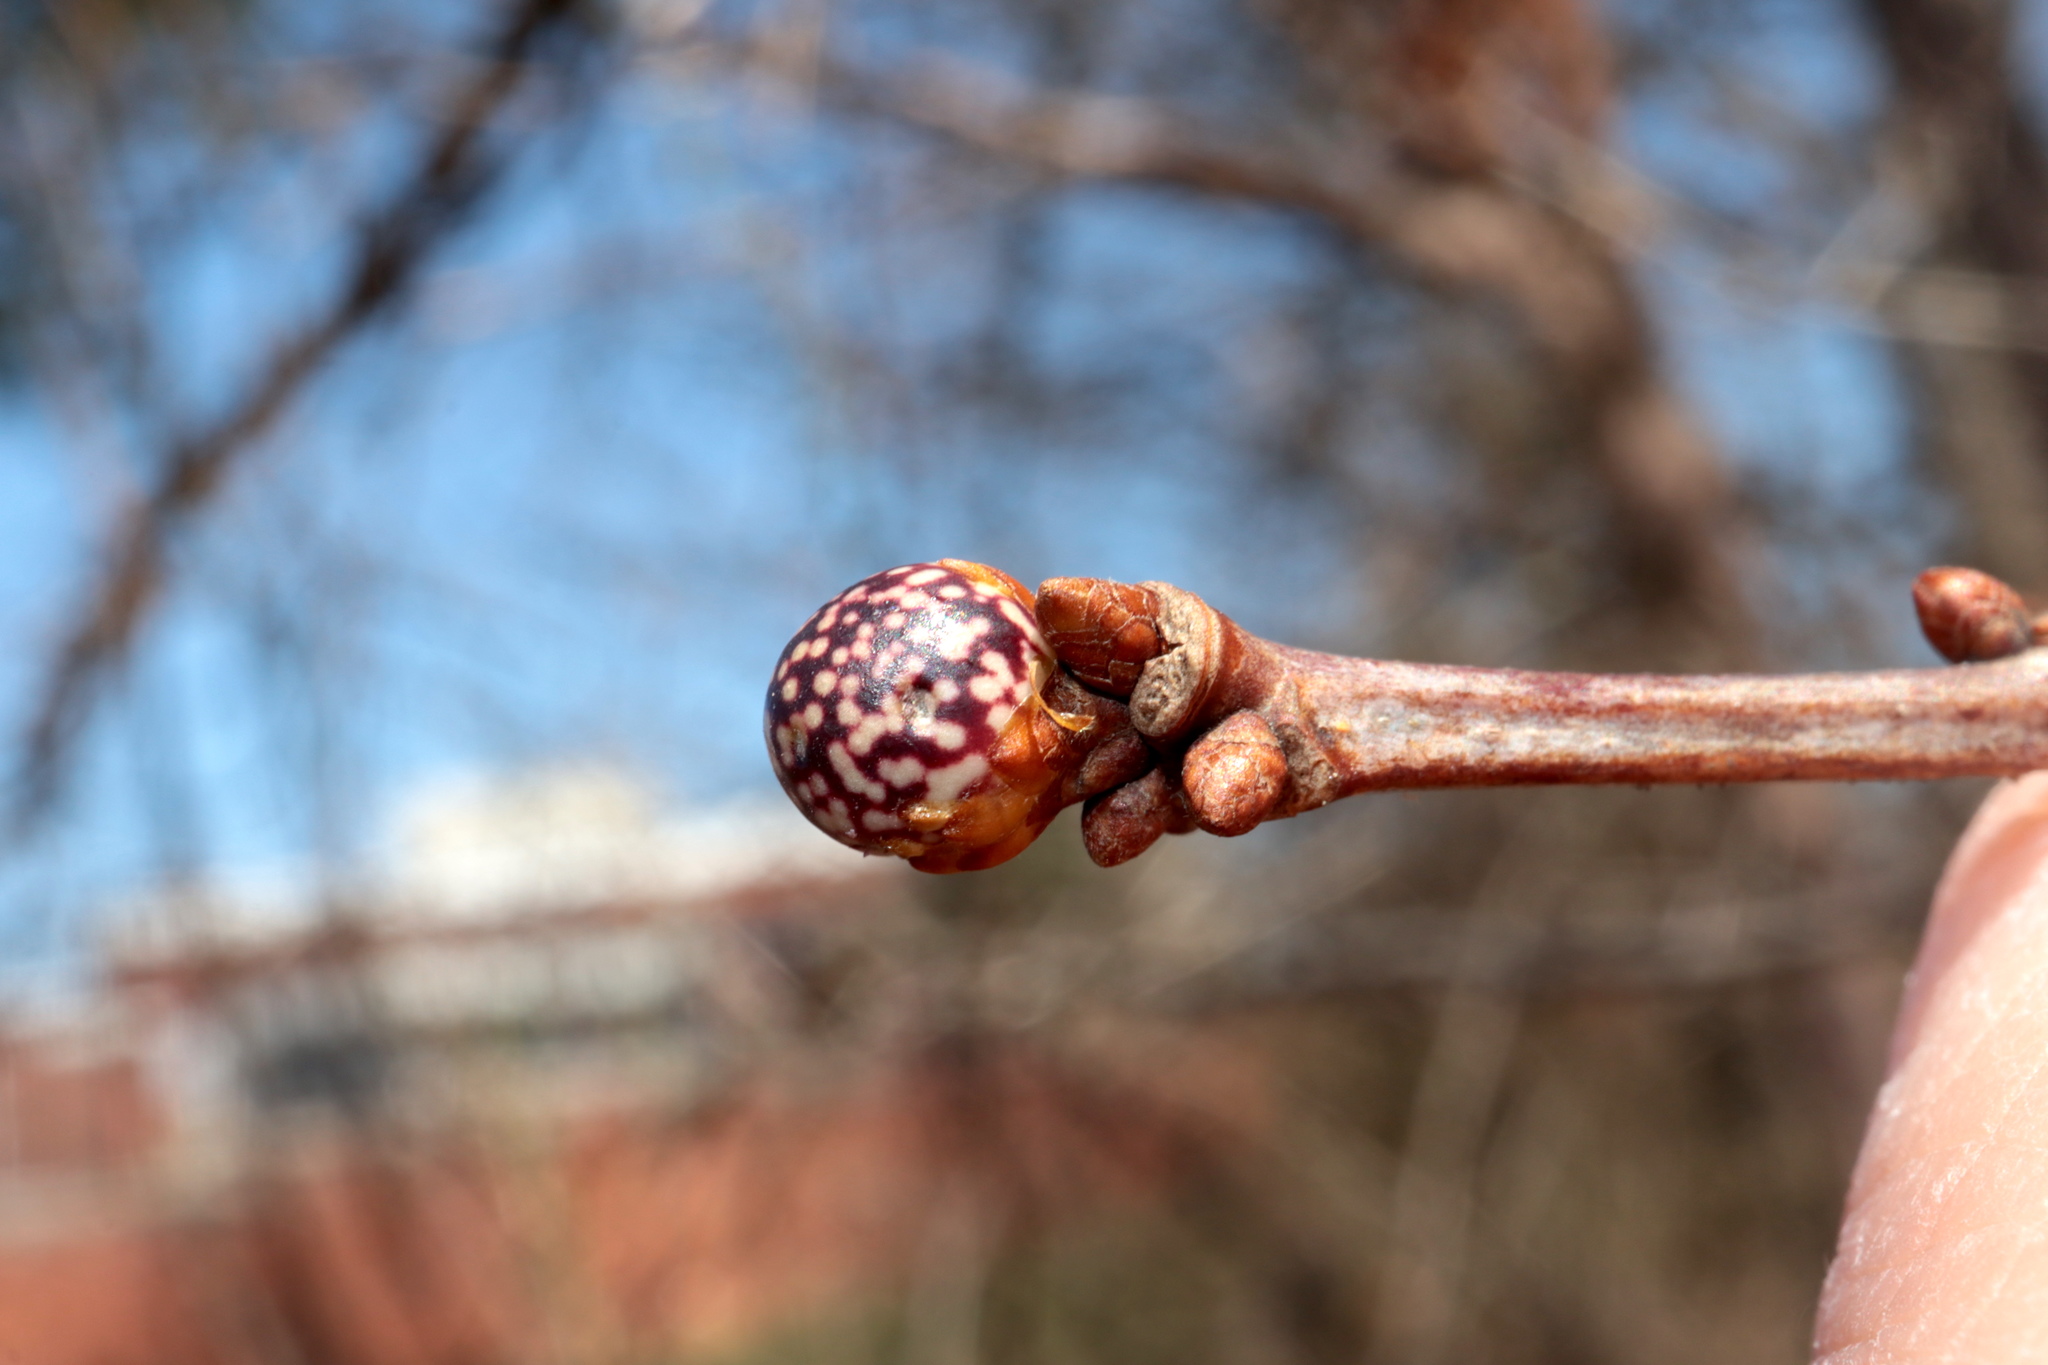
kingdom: Animalia
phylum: Arthropoda
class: Insecta
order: Hymenoptera
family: Cynipidae
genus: Andricus
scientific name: Andricus
